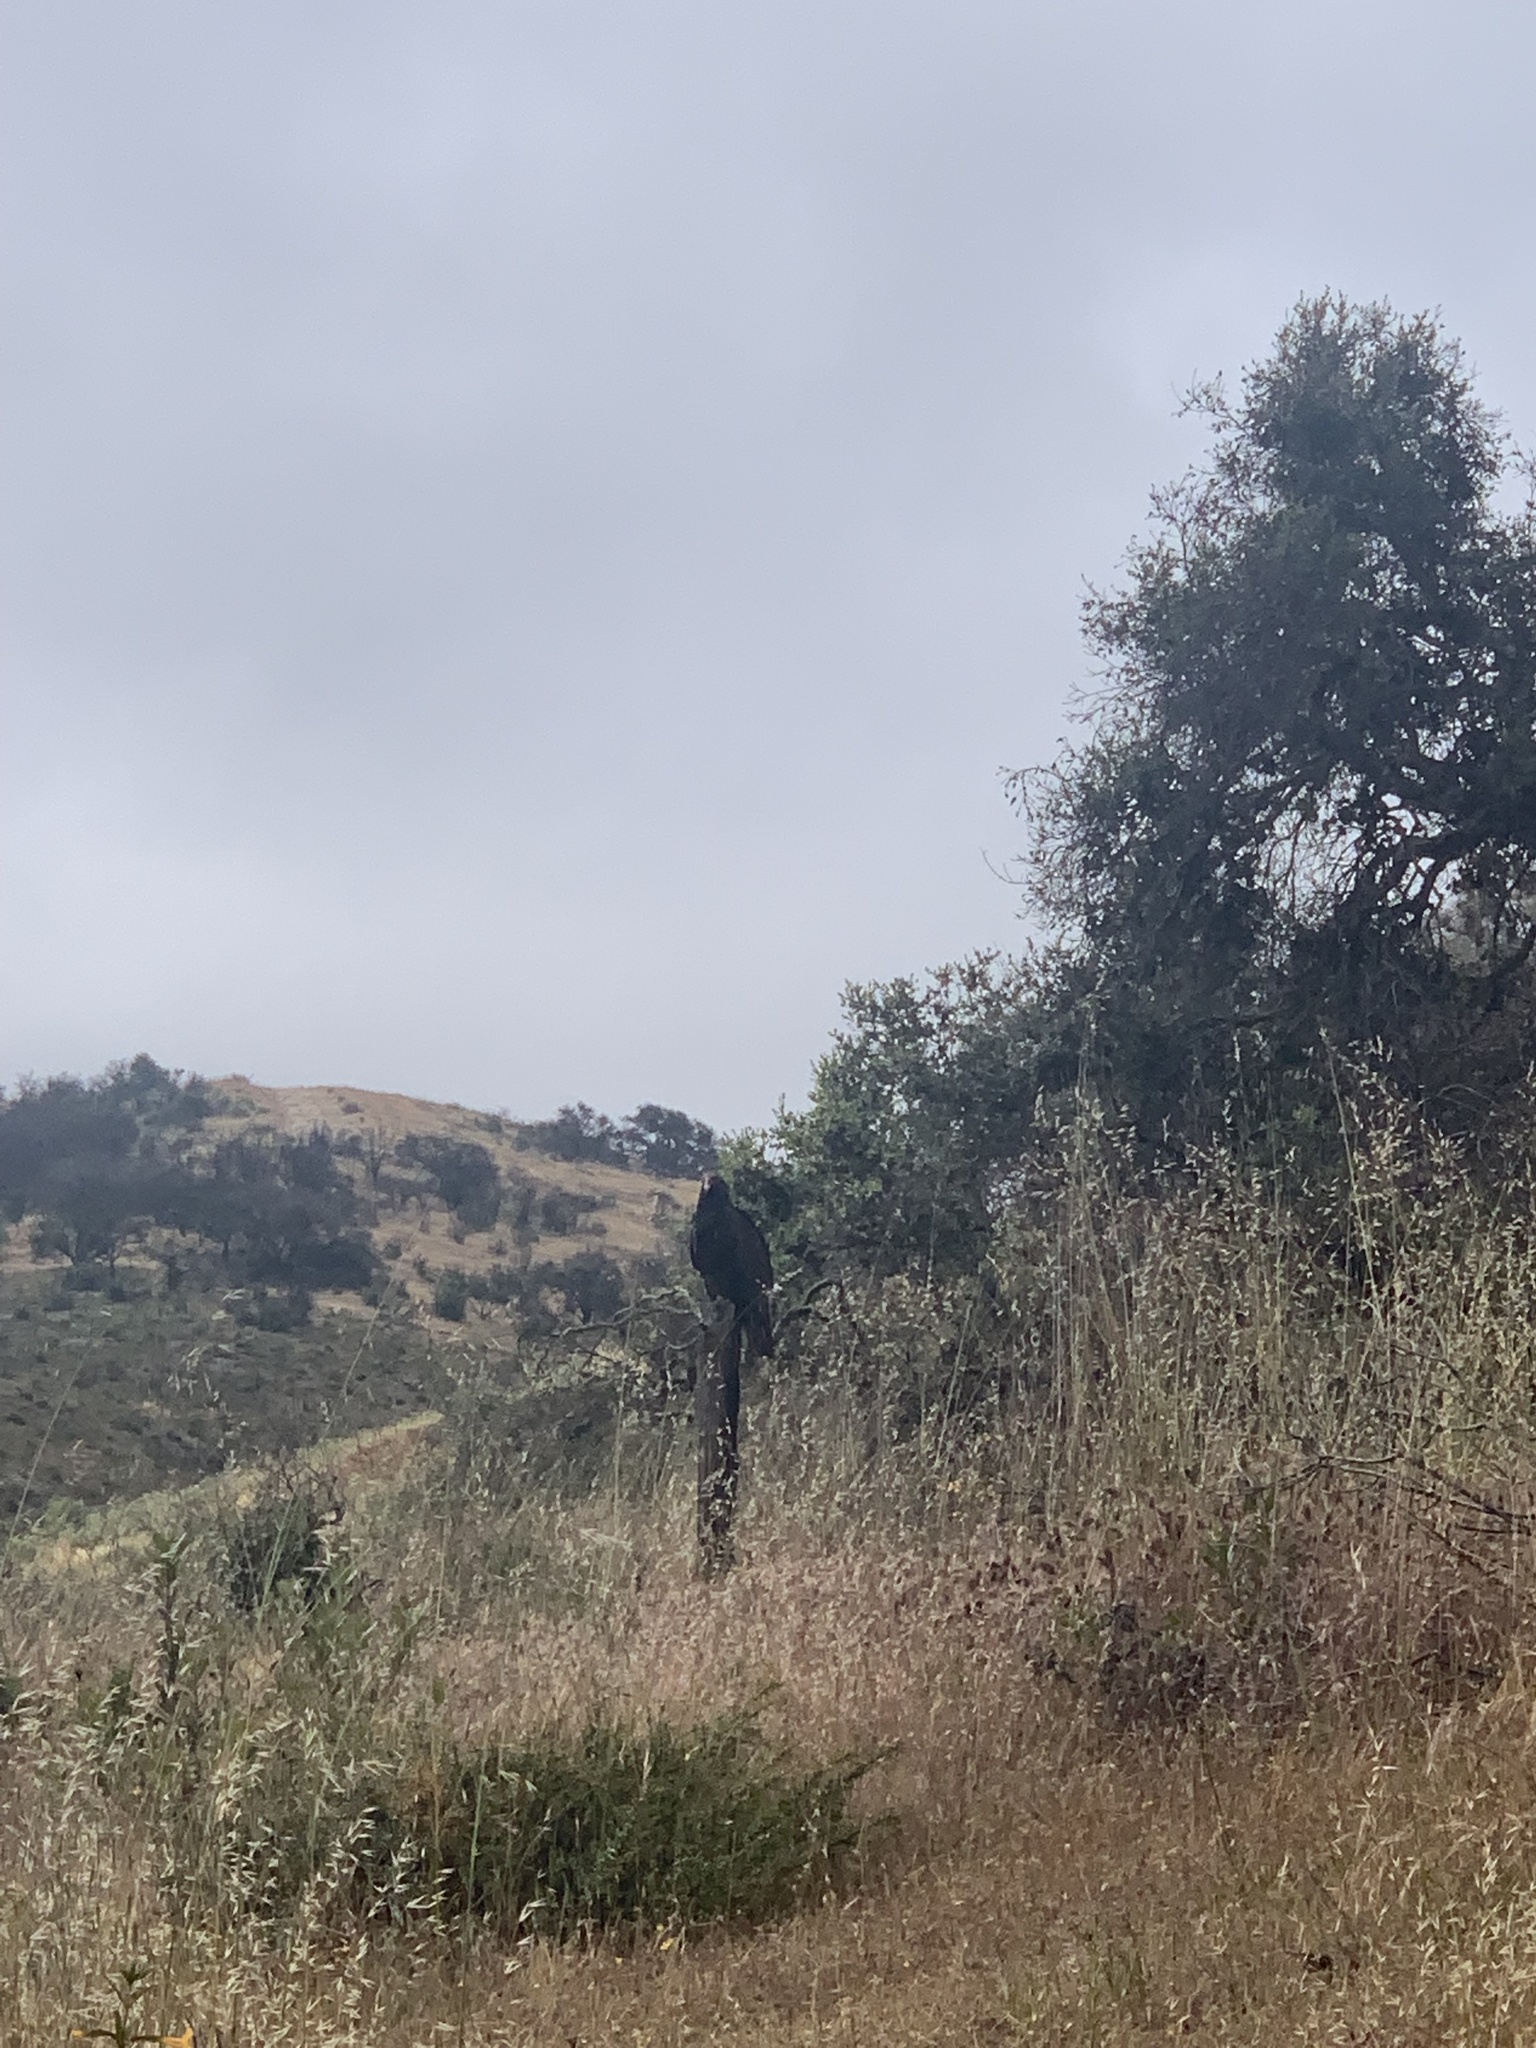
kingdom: Animalia
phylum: Chordata
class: Aves
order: Accipitriformes
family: Cathartidae
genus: Cathartes
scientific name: Cathartes aura
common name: Turkey vulture
